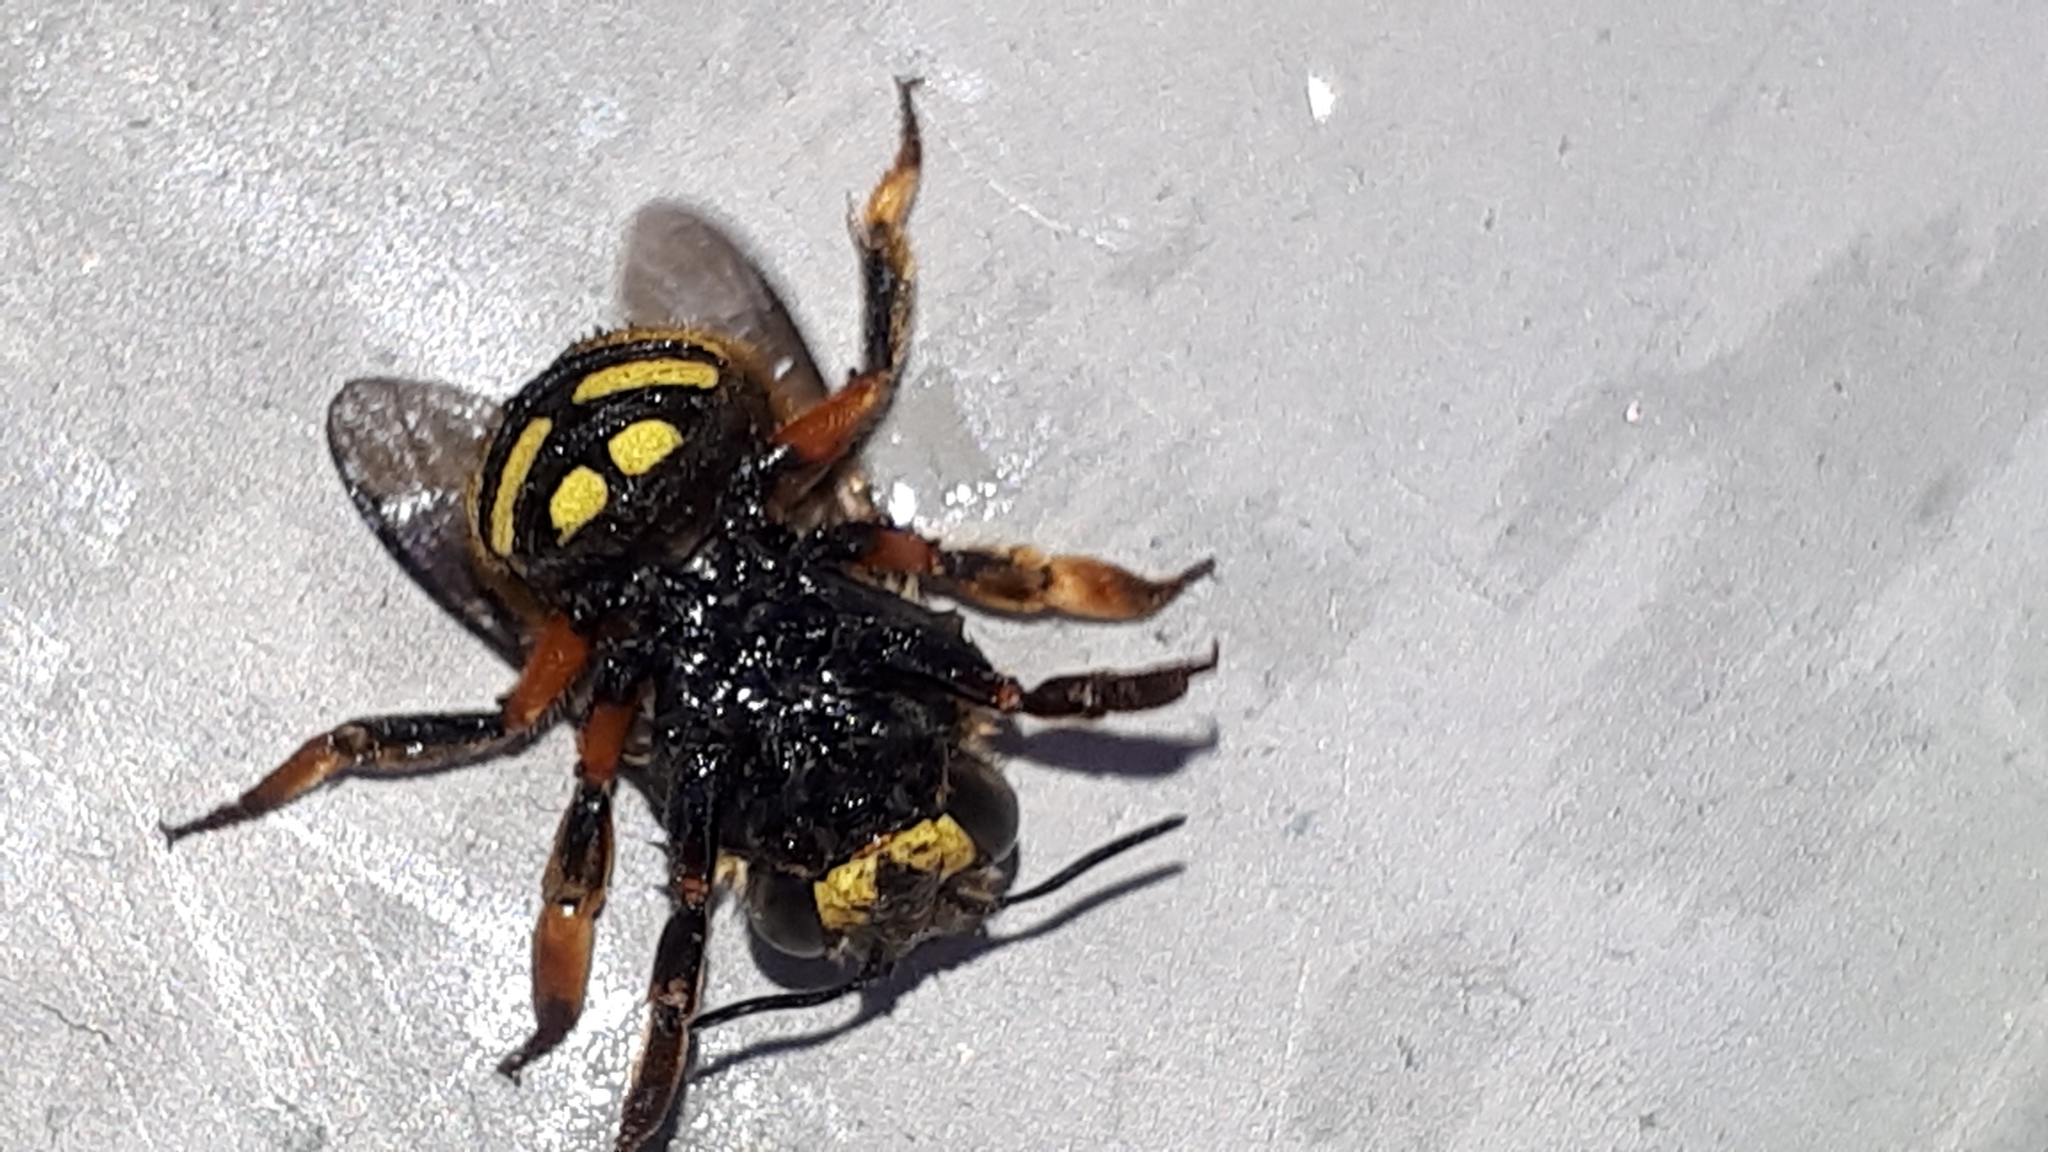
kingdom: Animalia
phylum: Arthropoda
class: Insecta
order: Hymenoptera
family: Megachilidae
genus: Anthidium
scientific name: Anthidium manicatum
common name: Wool carder bee
